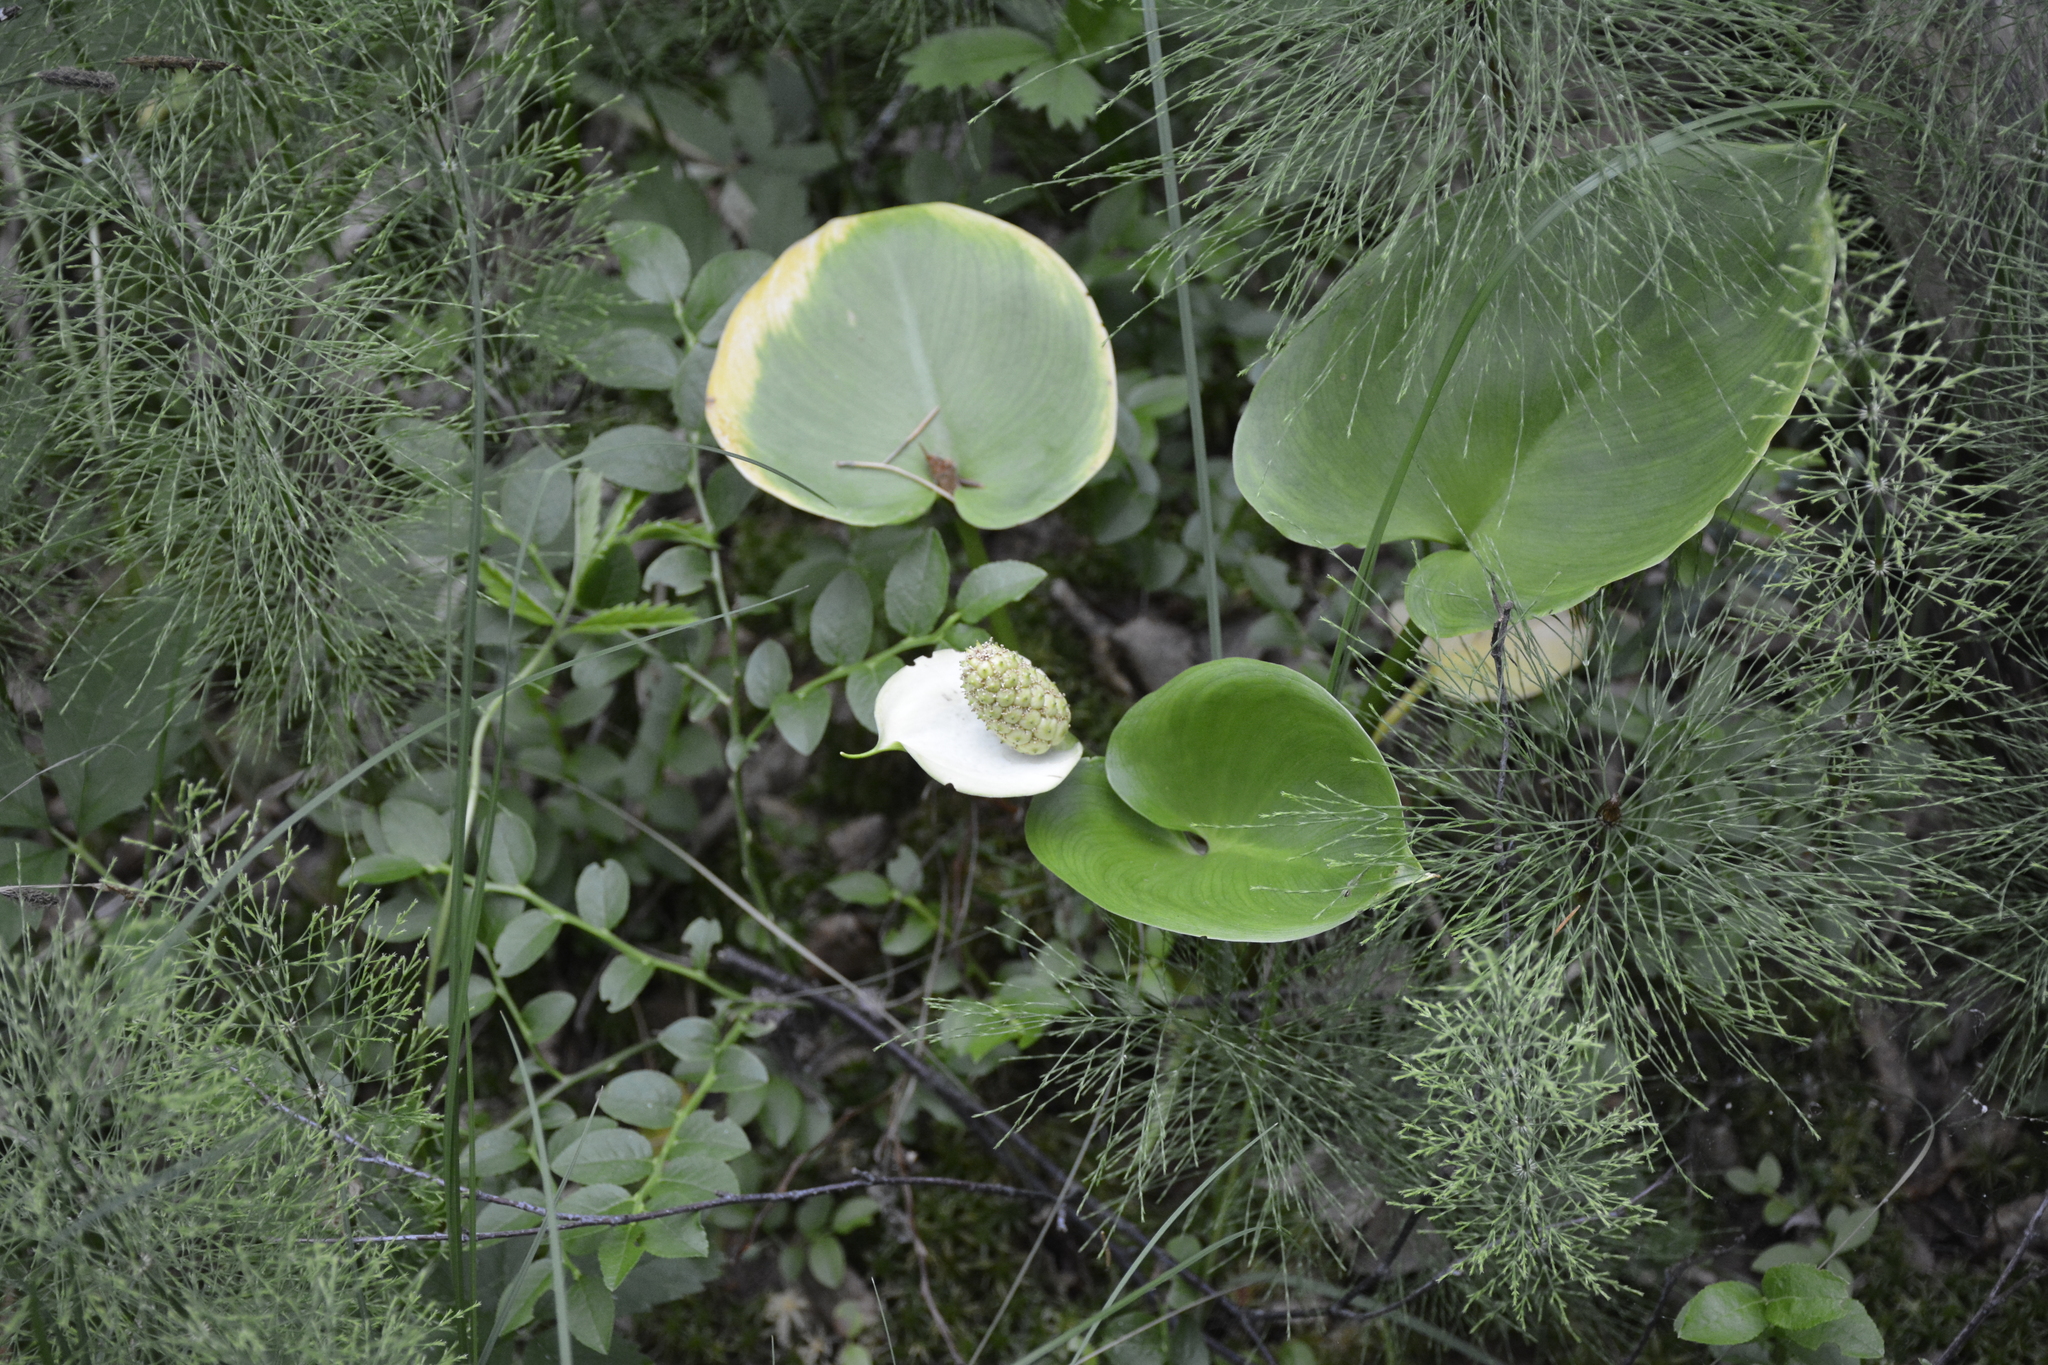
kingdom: Plantae
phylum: Tracheophyta
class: Liliopsida
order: Alismatales
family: Araceae
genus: Calla
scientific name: Calla palustris
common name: Bog arum
